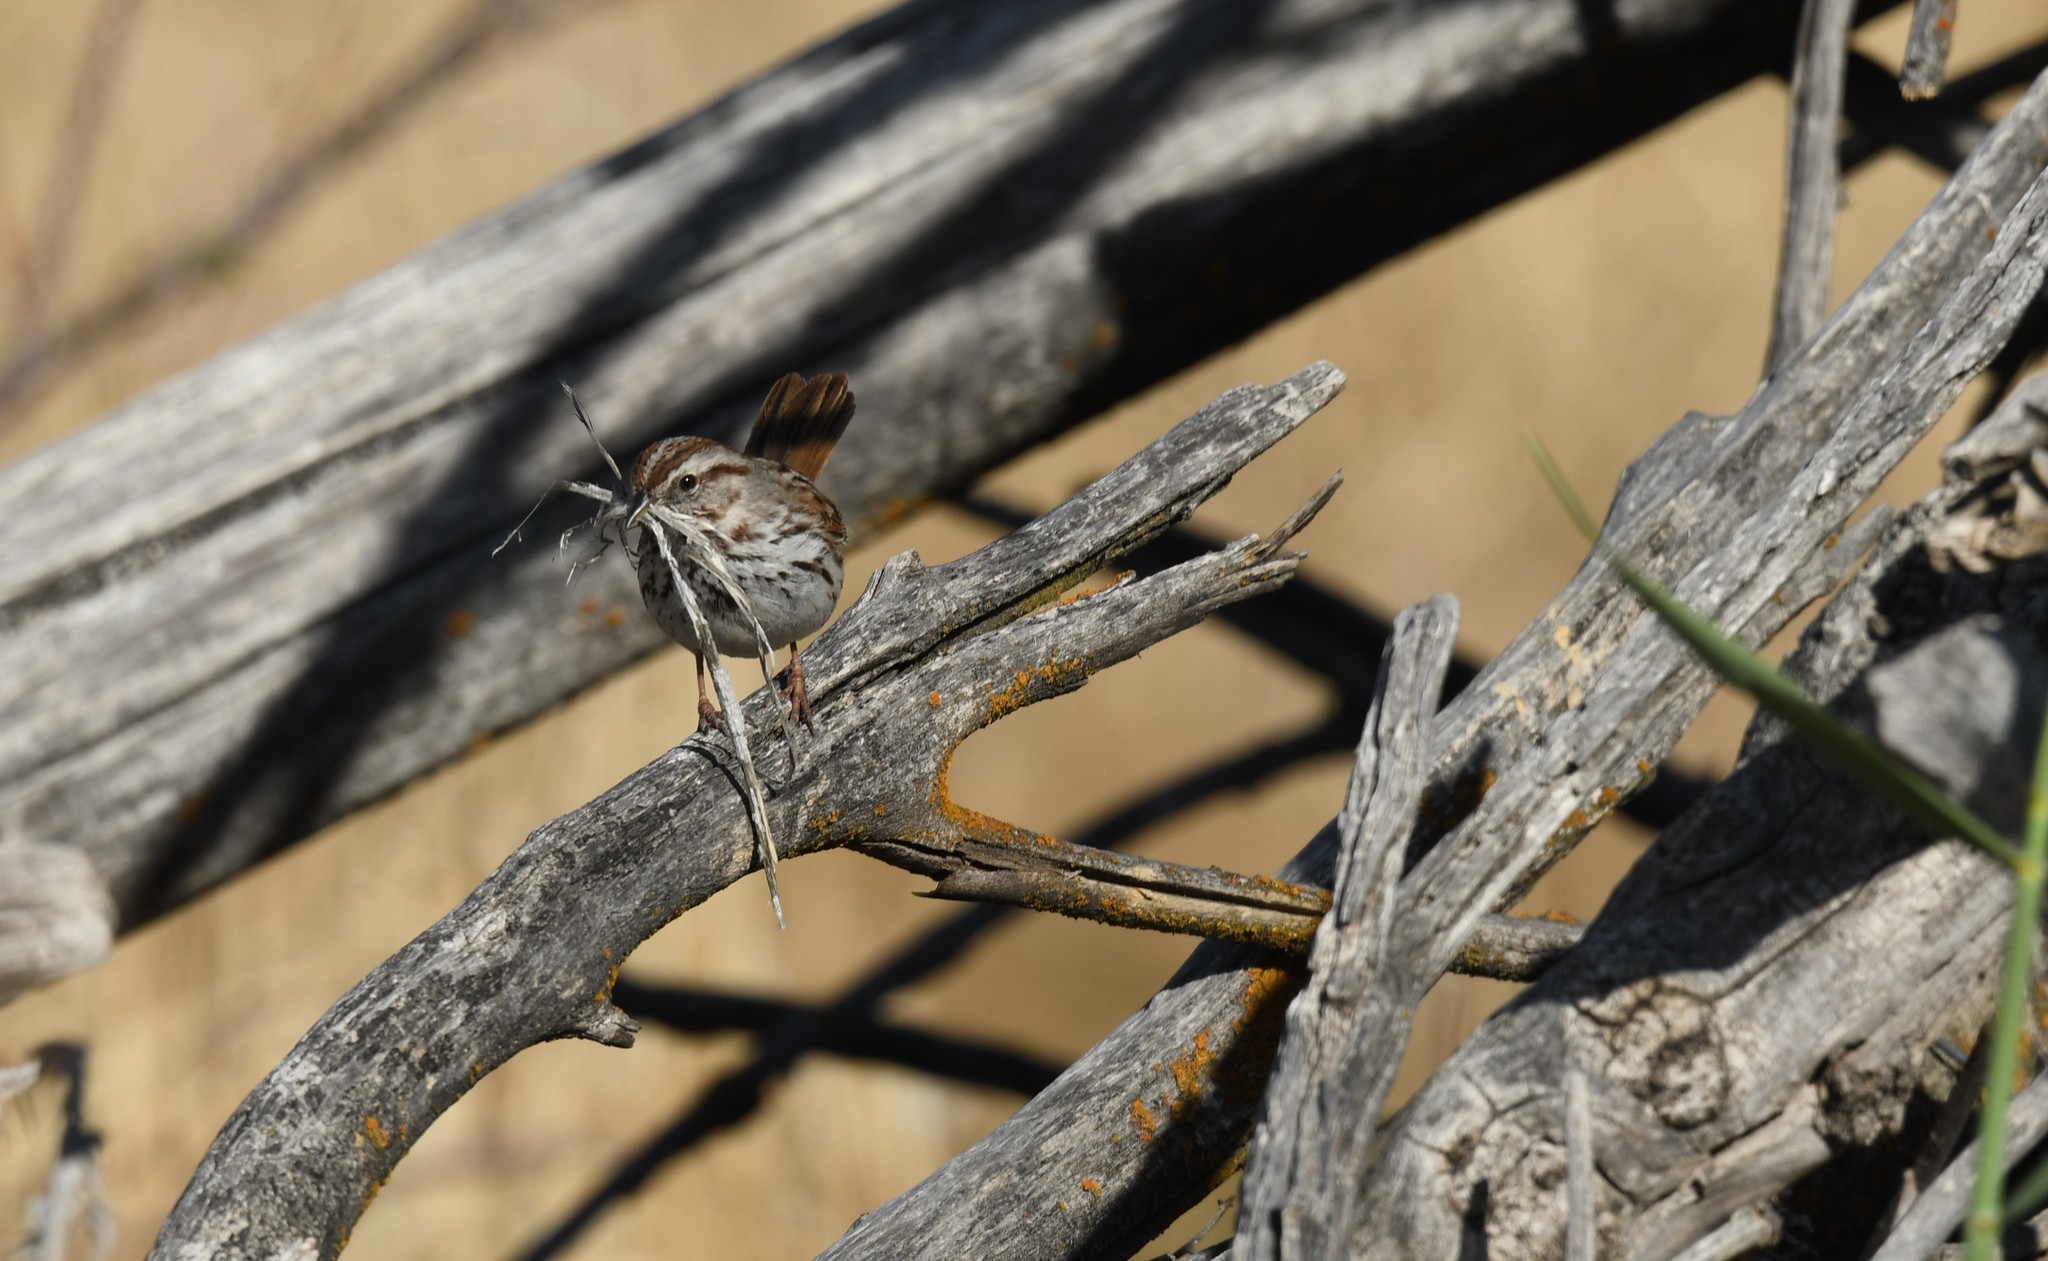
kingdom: Animalia
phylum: Chordata
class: Aves
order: Passeriformes
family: Passerellidae
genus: Melospiza
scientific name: Melospiza melodia
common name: Song sparrow
